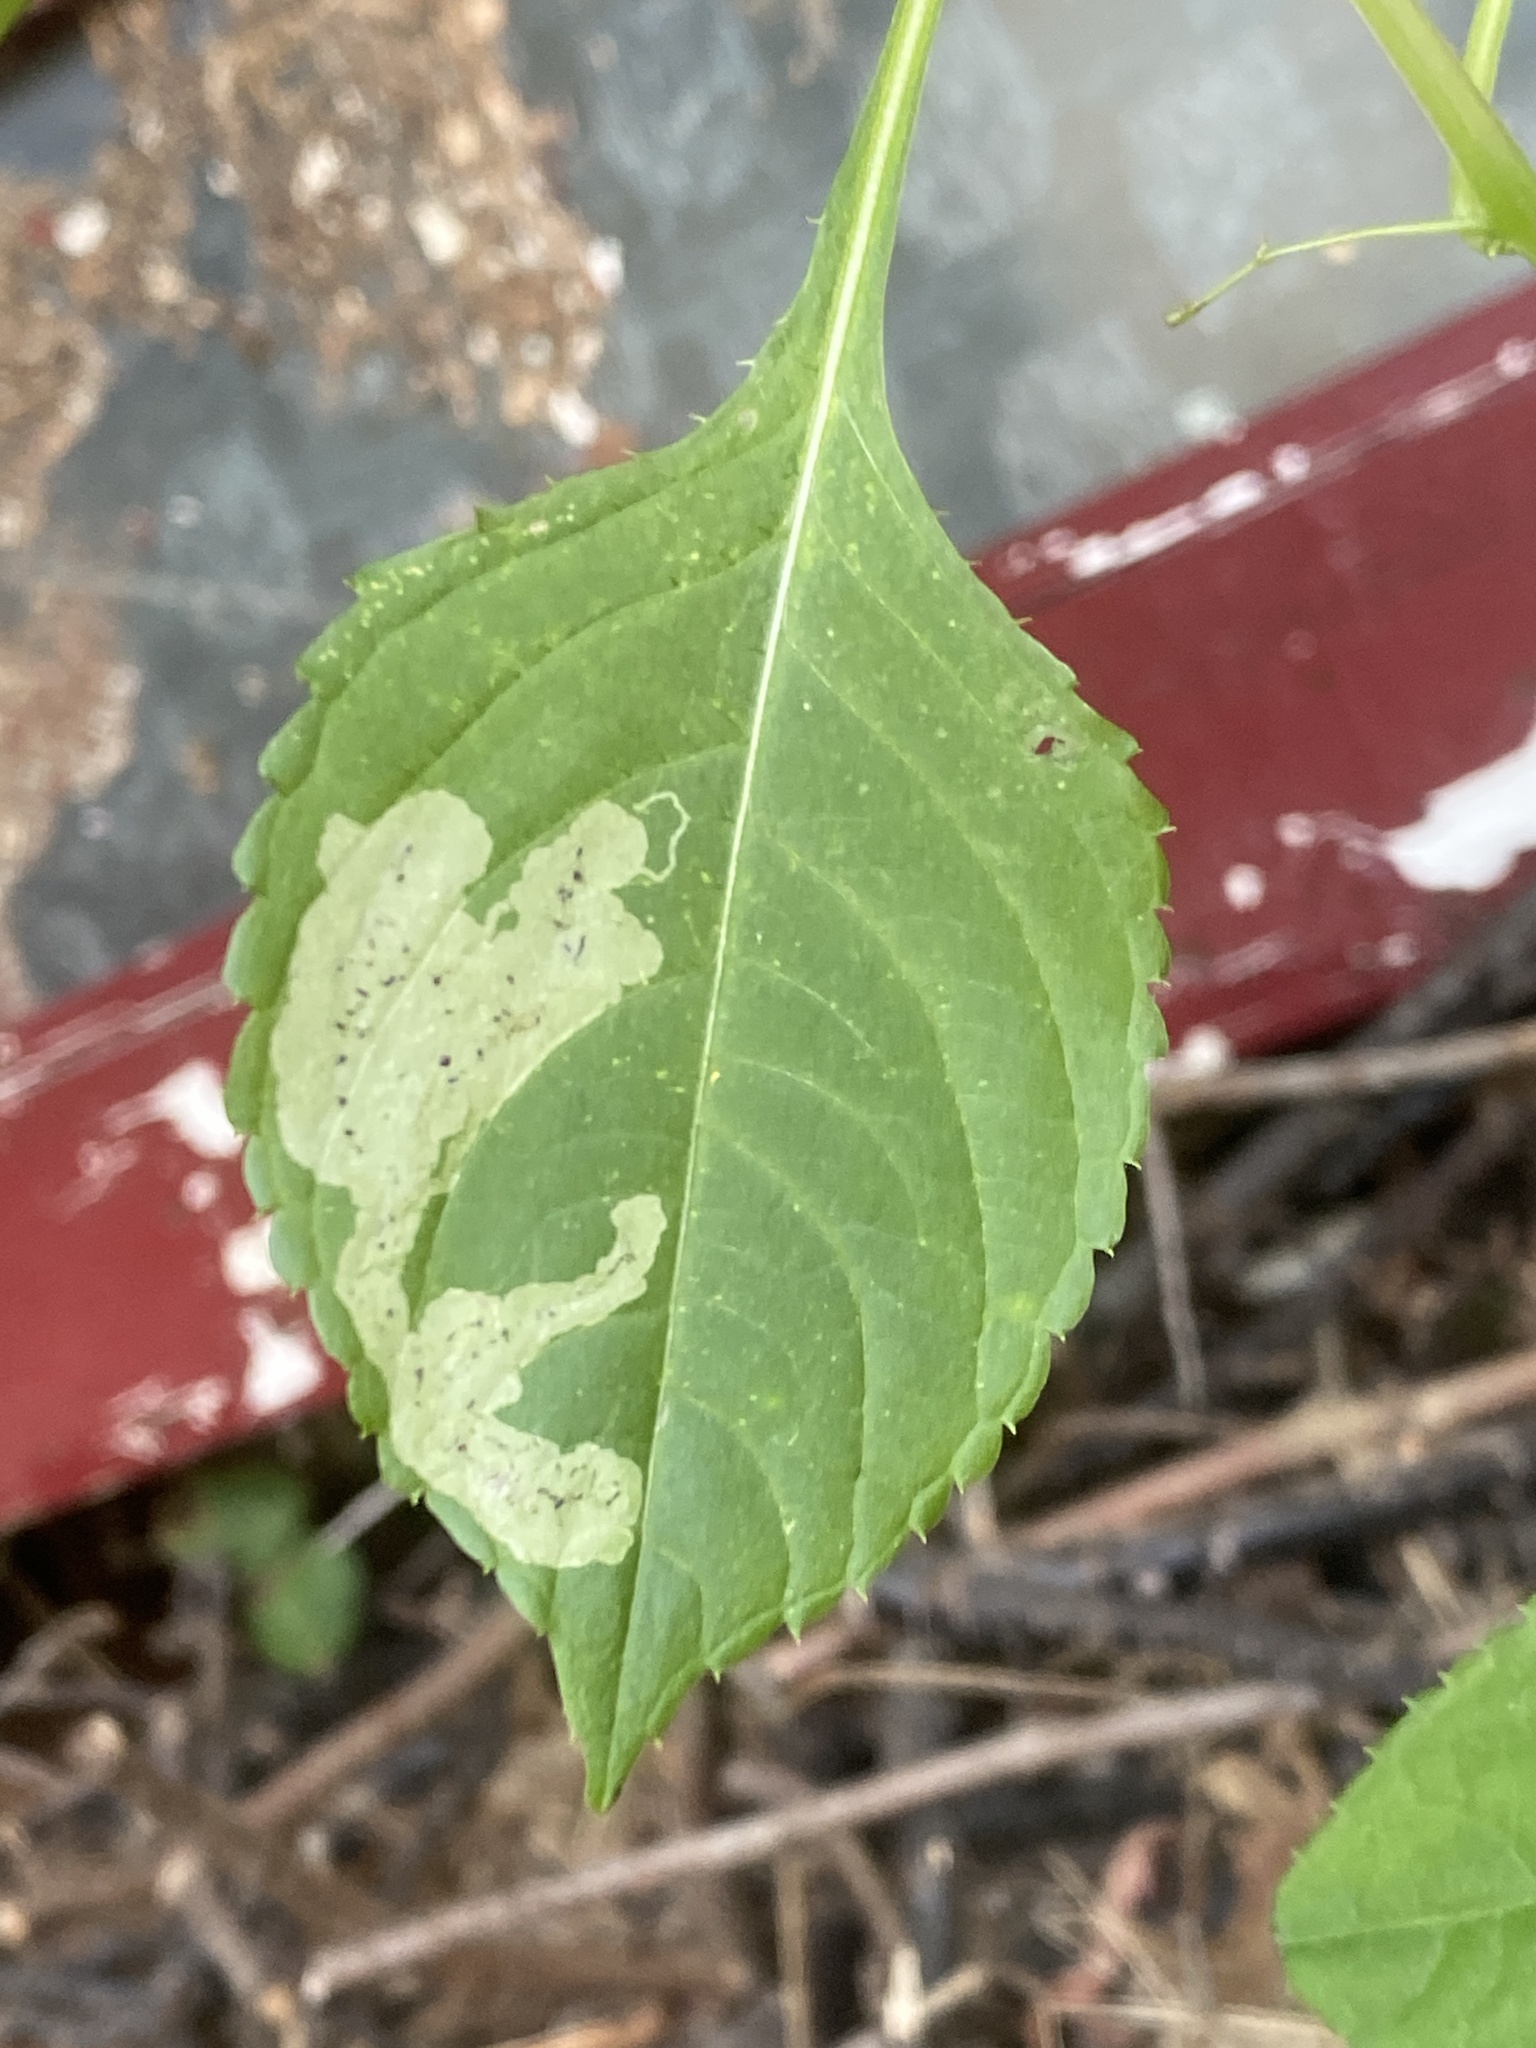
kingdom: Plantae
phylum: Tracheophyta
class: Magnoliopsida
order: Ericales
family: Balsaminaceae
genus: Impatiens
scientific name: Impatiens parviflora
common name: Small balsam
